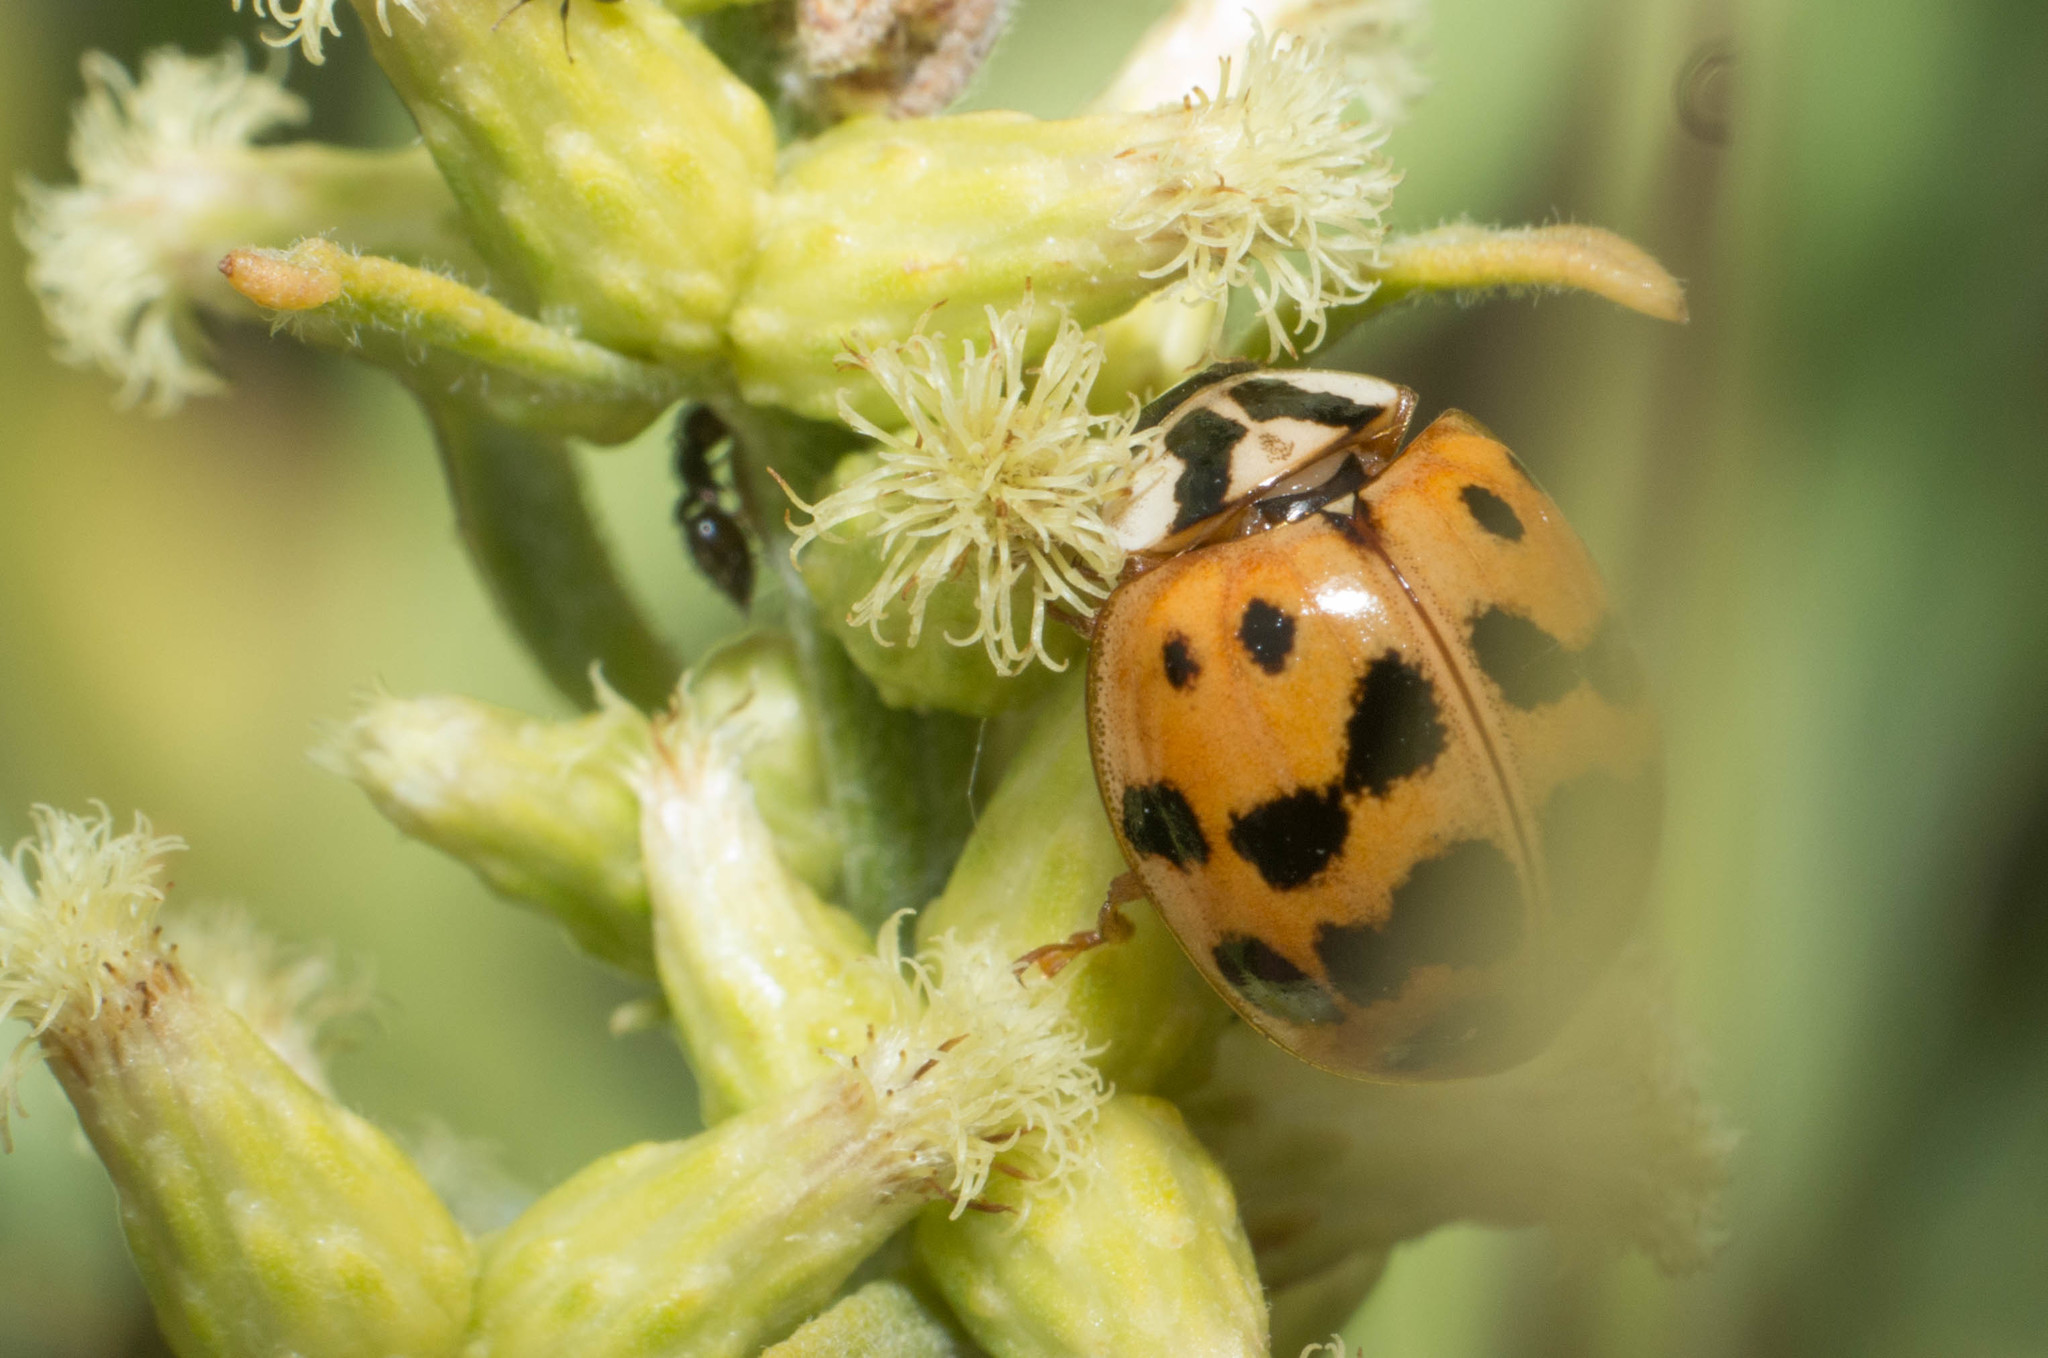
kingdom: Animalia
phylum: Arthropoda
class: Insecta
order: Coleoptera
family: Coccinellidae
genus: Harmonia
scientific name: Harmonia axyridis
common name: Harlequin ladybird
